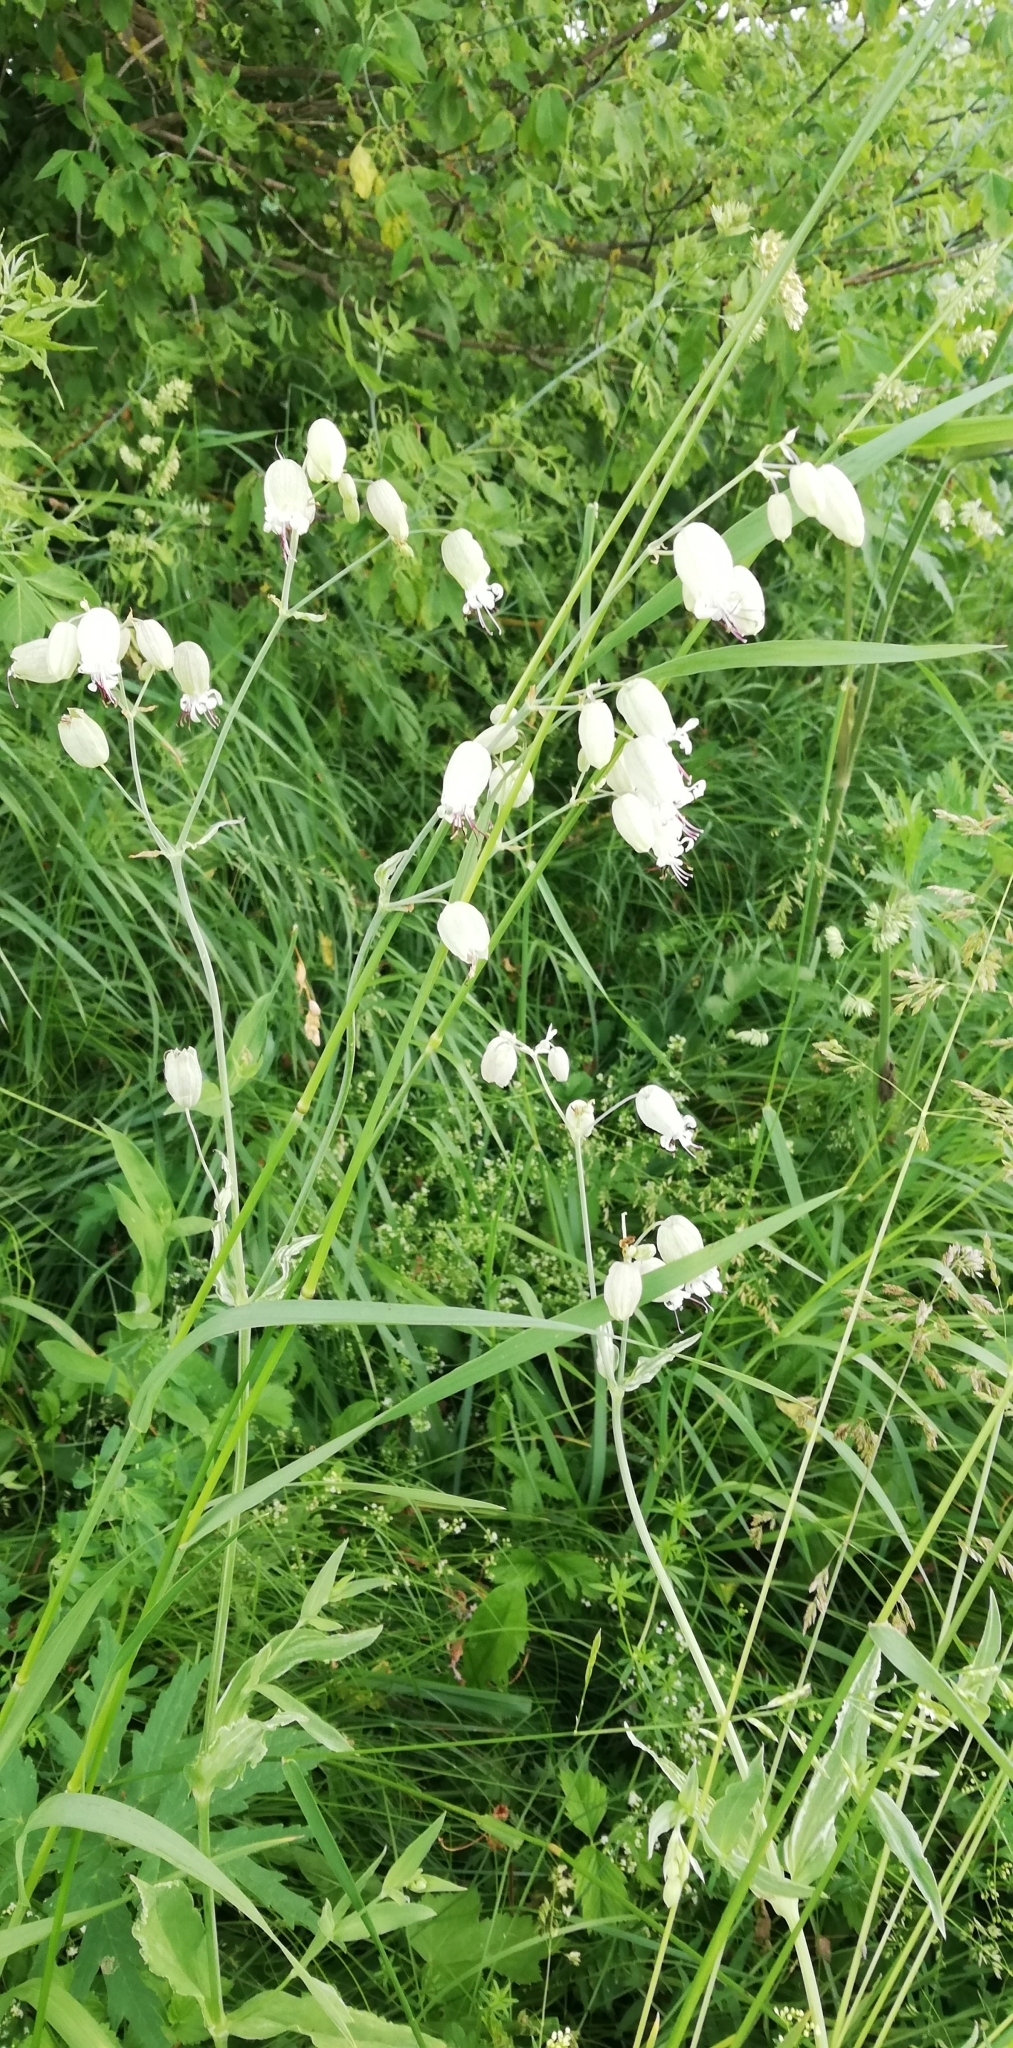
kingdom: Plantae
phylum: Tracheophyta
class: Magnoliopsida
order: Caryophyllales
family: Caryophyllaceae
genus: Silene
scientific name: Silene vulgaris
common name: Bladder campion
